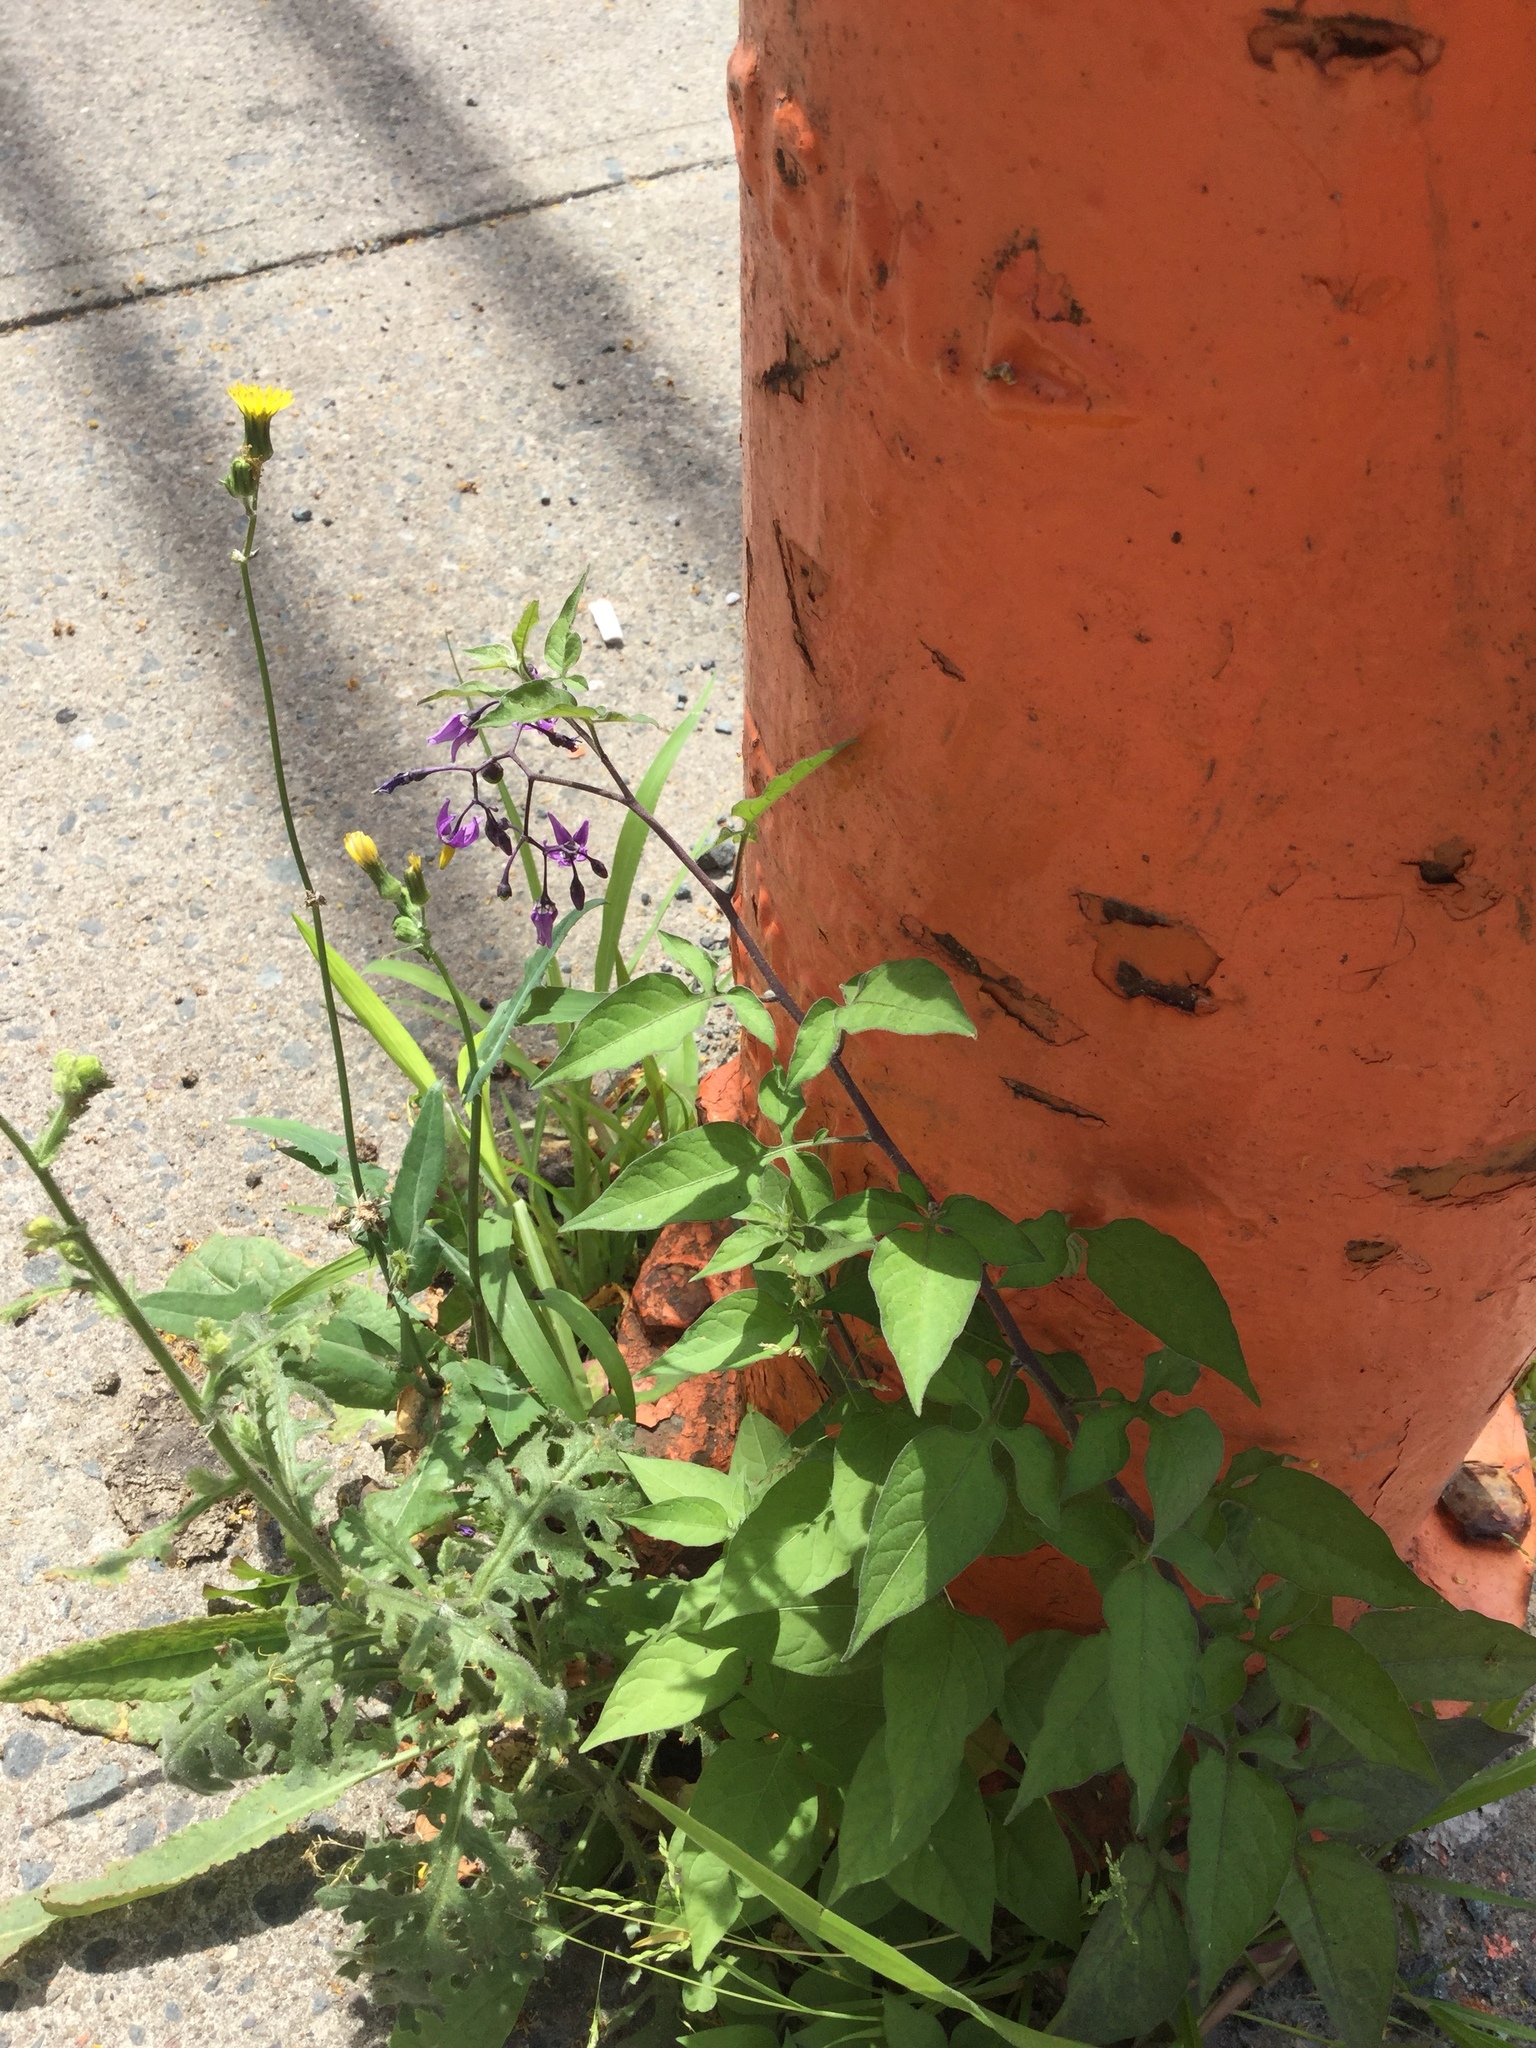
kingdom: Plantae
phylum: Tracheophyta
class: Magnoliopsida
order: Solanales
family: Solanaceae
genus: Solanum
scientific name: Solanum dulcamara
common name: Climbing nightshade
